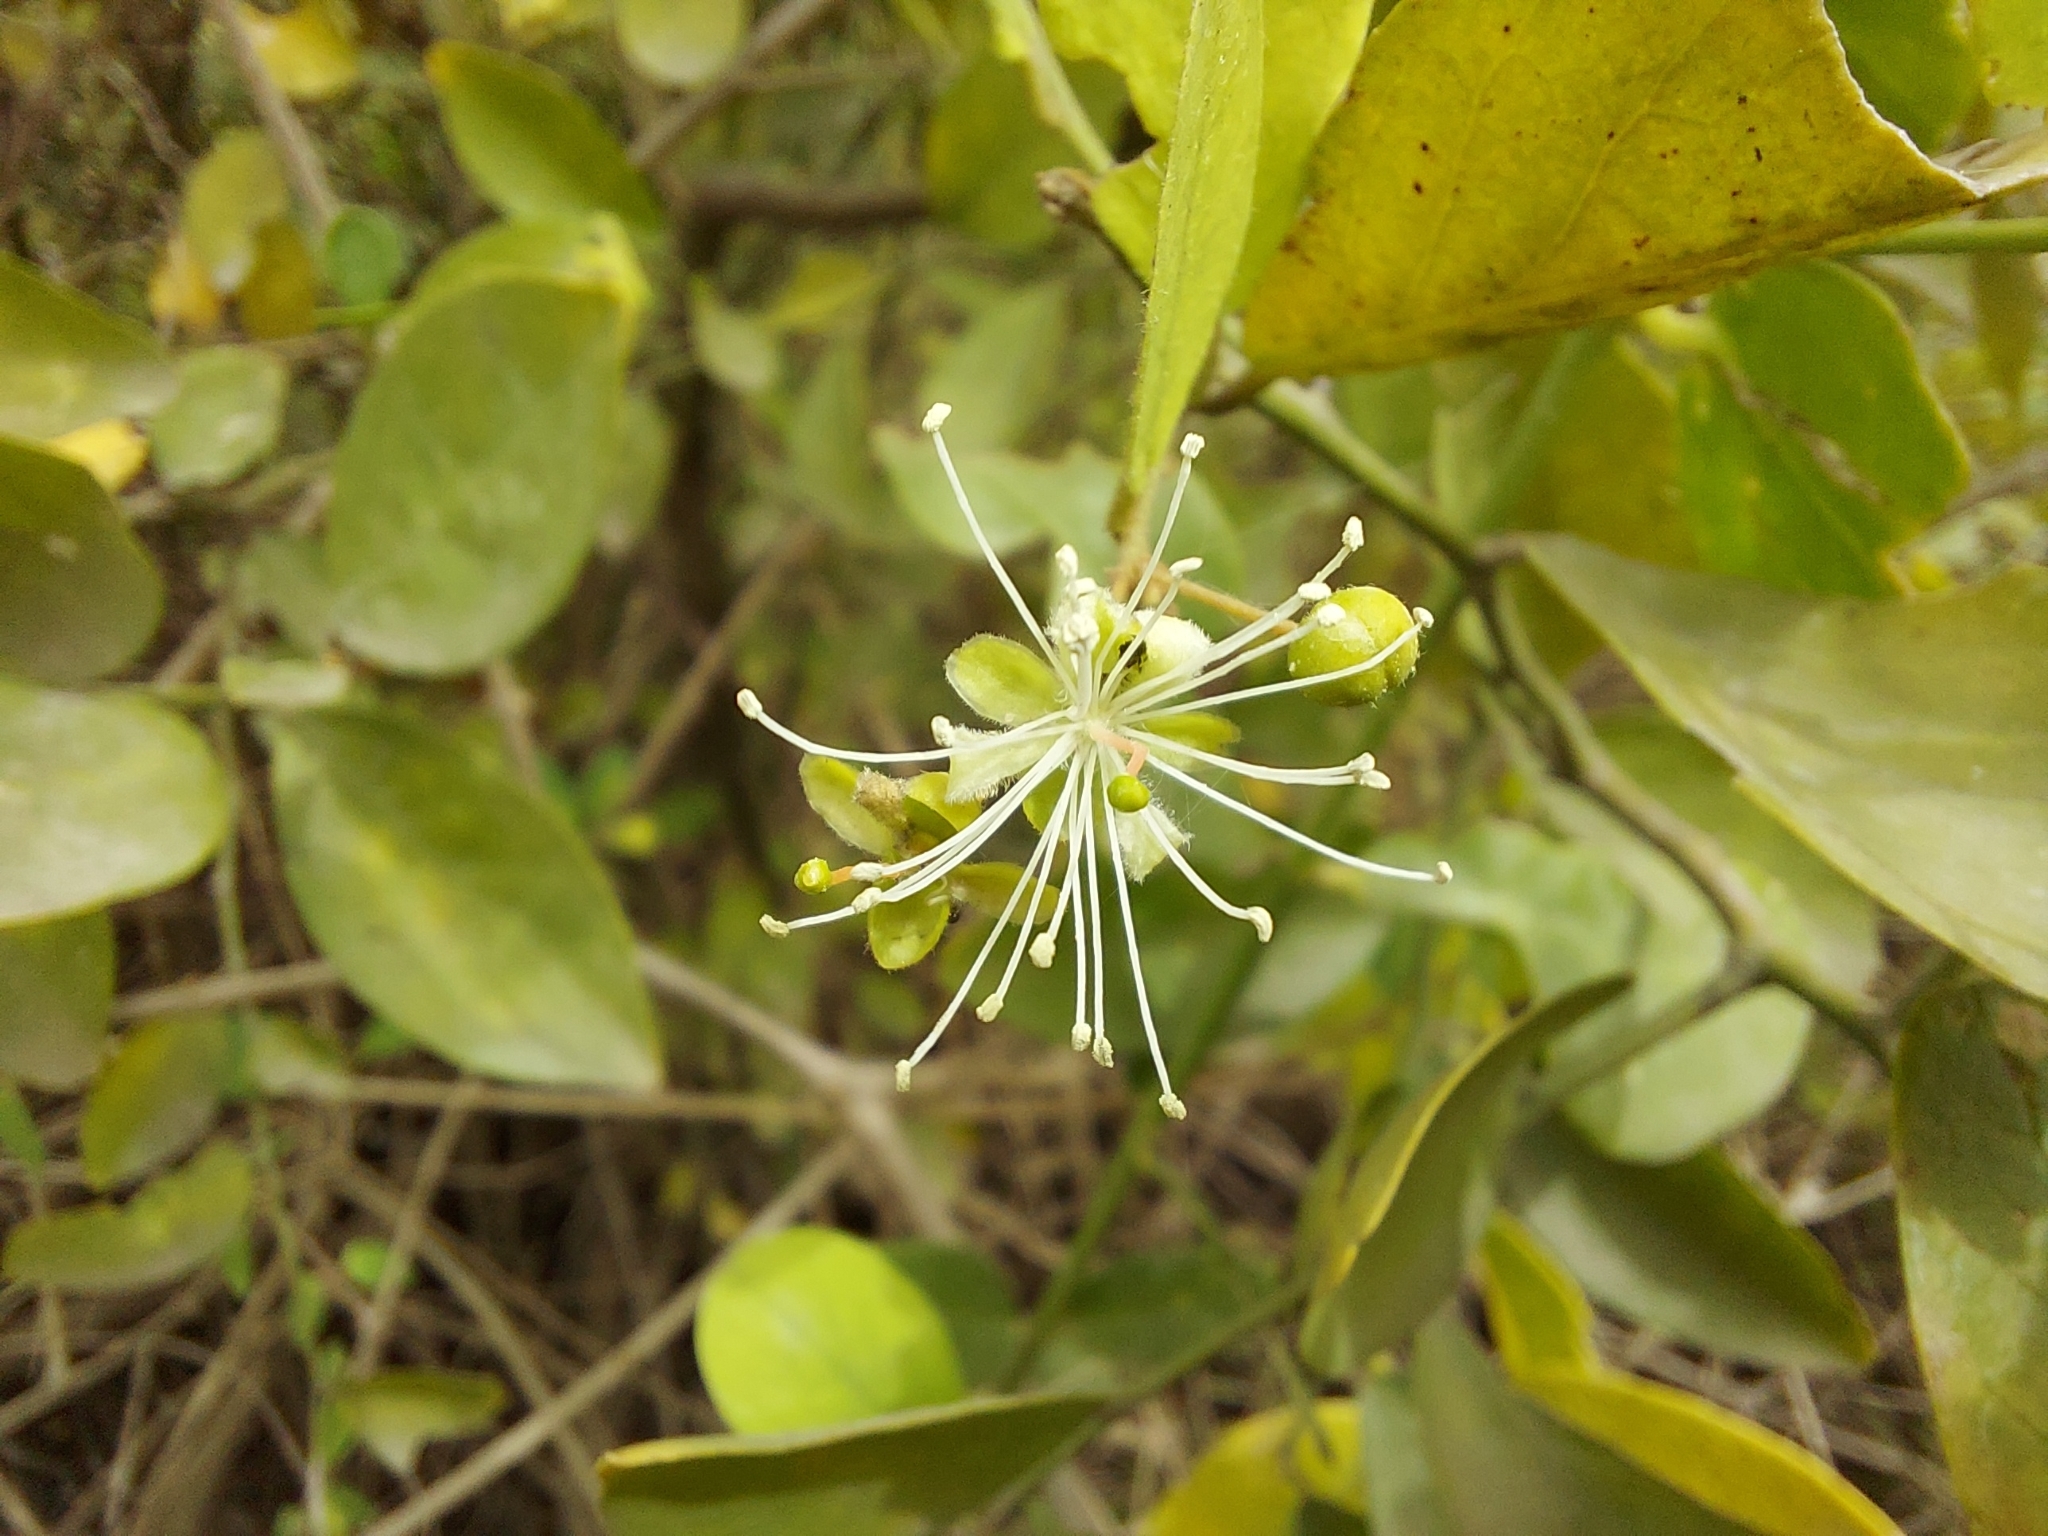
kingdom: Plantae
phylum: Tracheophyta
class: Magnoliopsida
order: Brassicales
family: Capparaceae
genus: Capparis
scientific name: Capparis sepiaria
